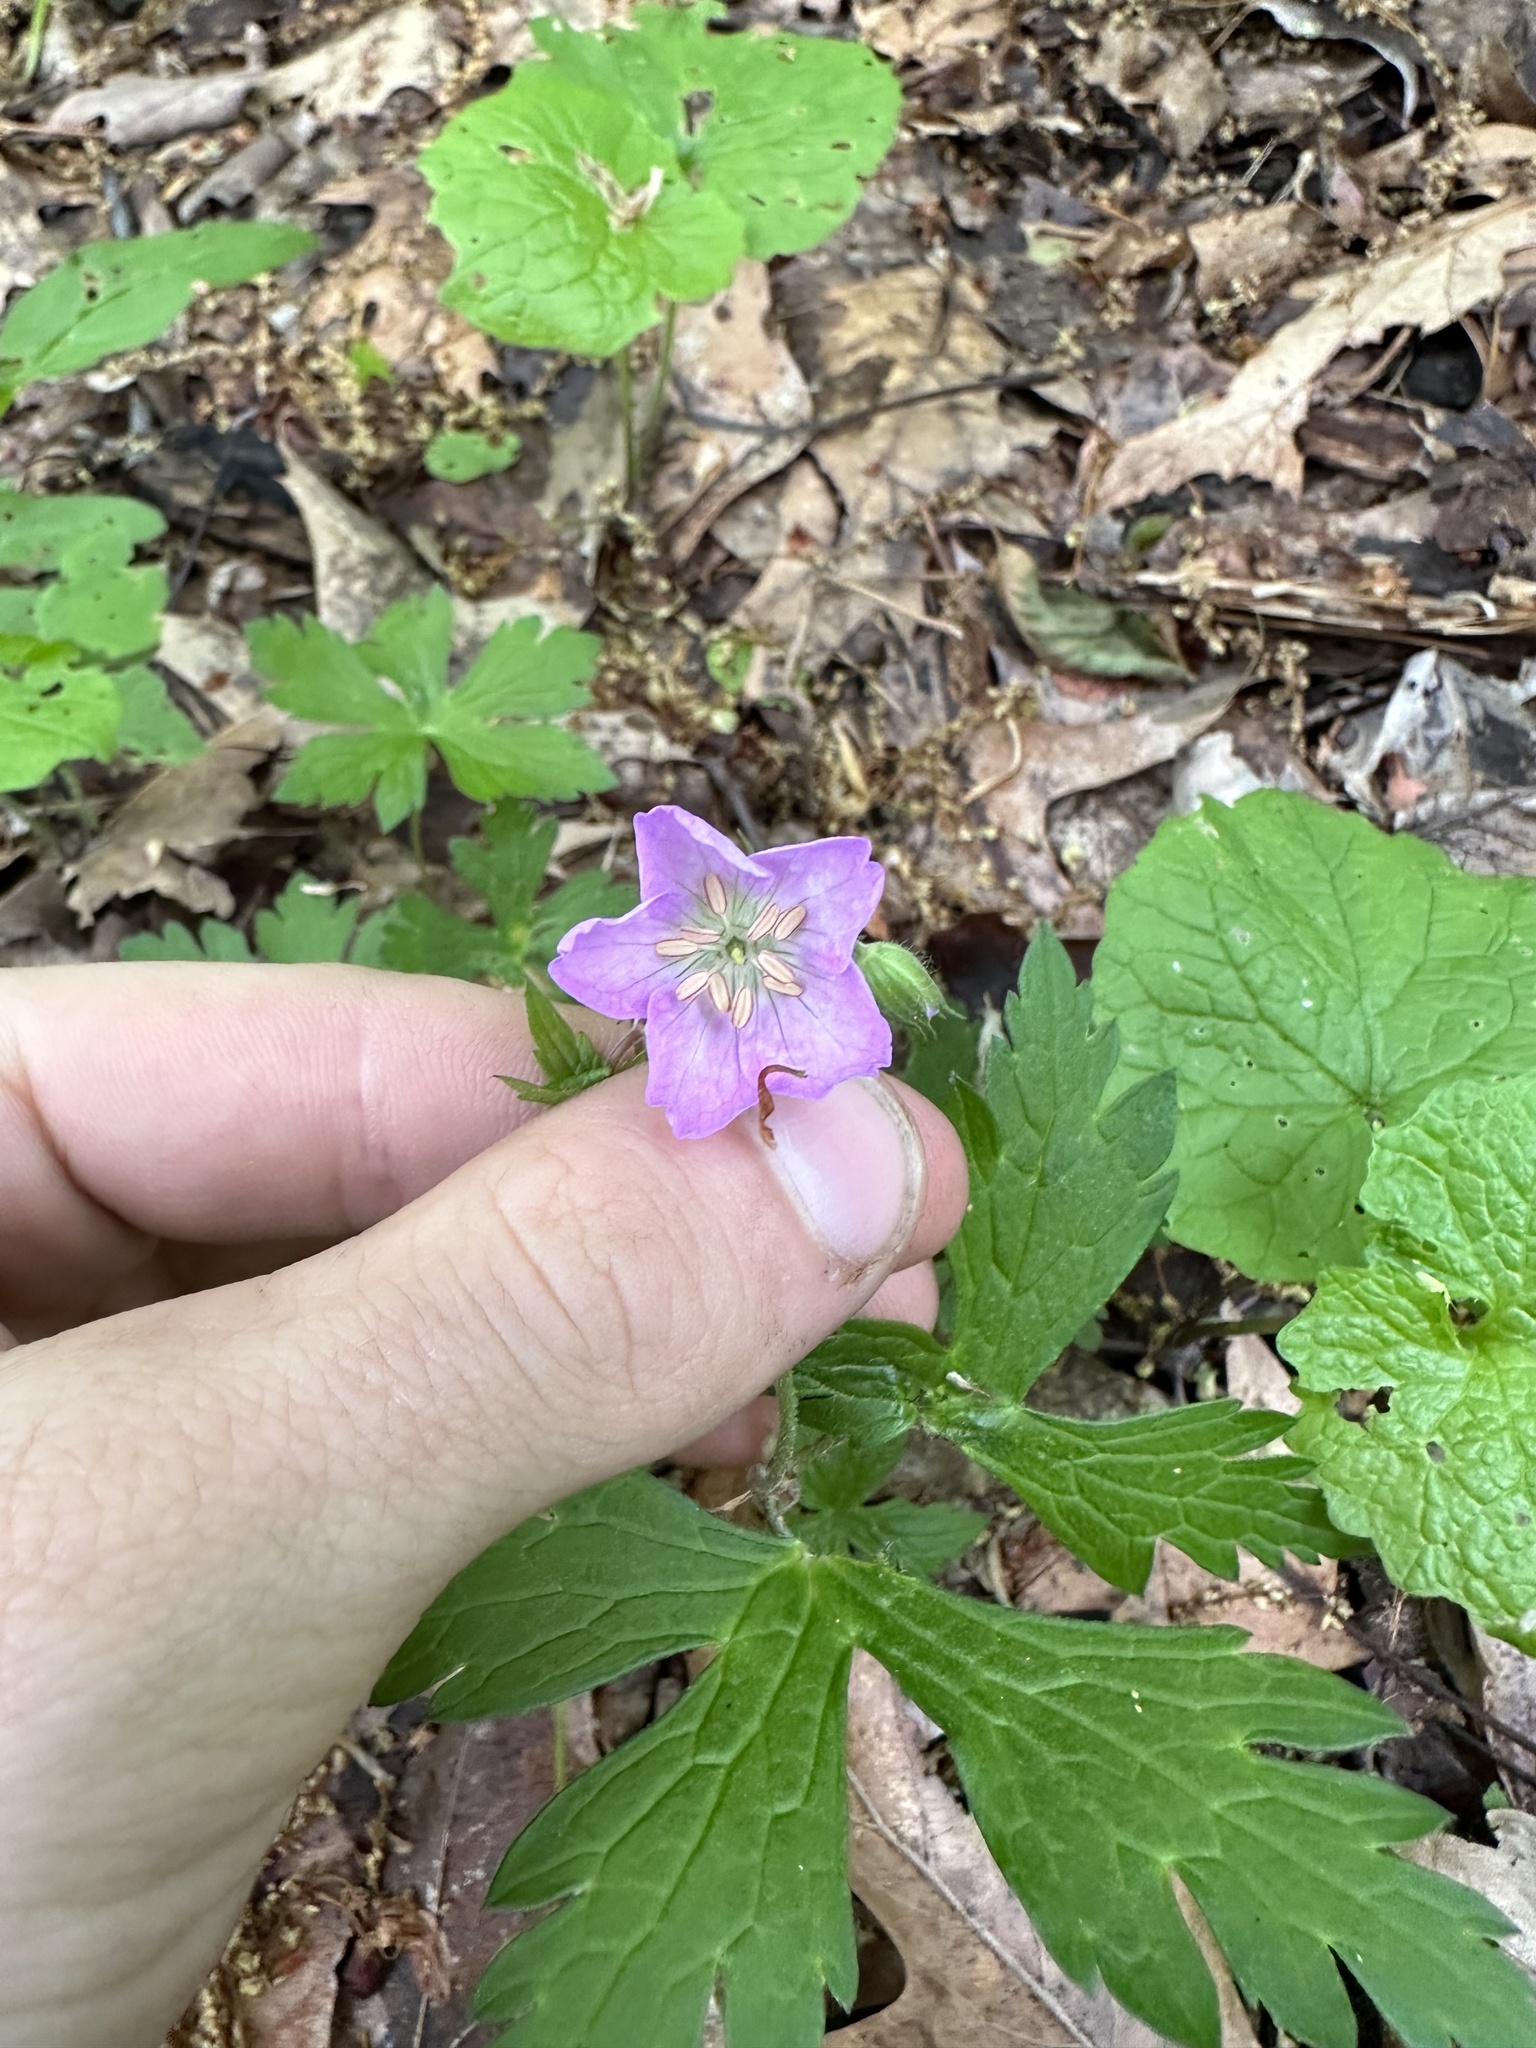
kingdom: Plantae
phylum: Tracheophyta
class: Magnoliopsida
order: Geraniales
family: Geraniaceae
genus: Geranium
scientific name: Geranium maculatum
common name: Spotted geranium
